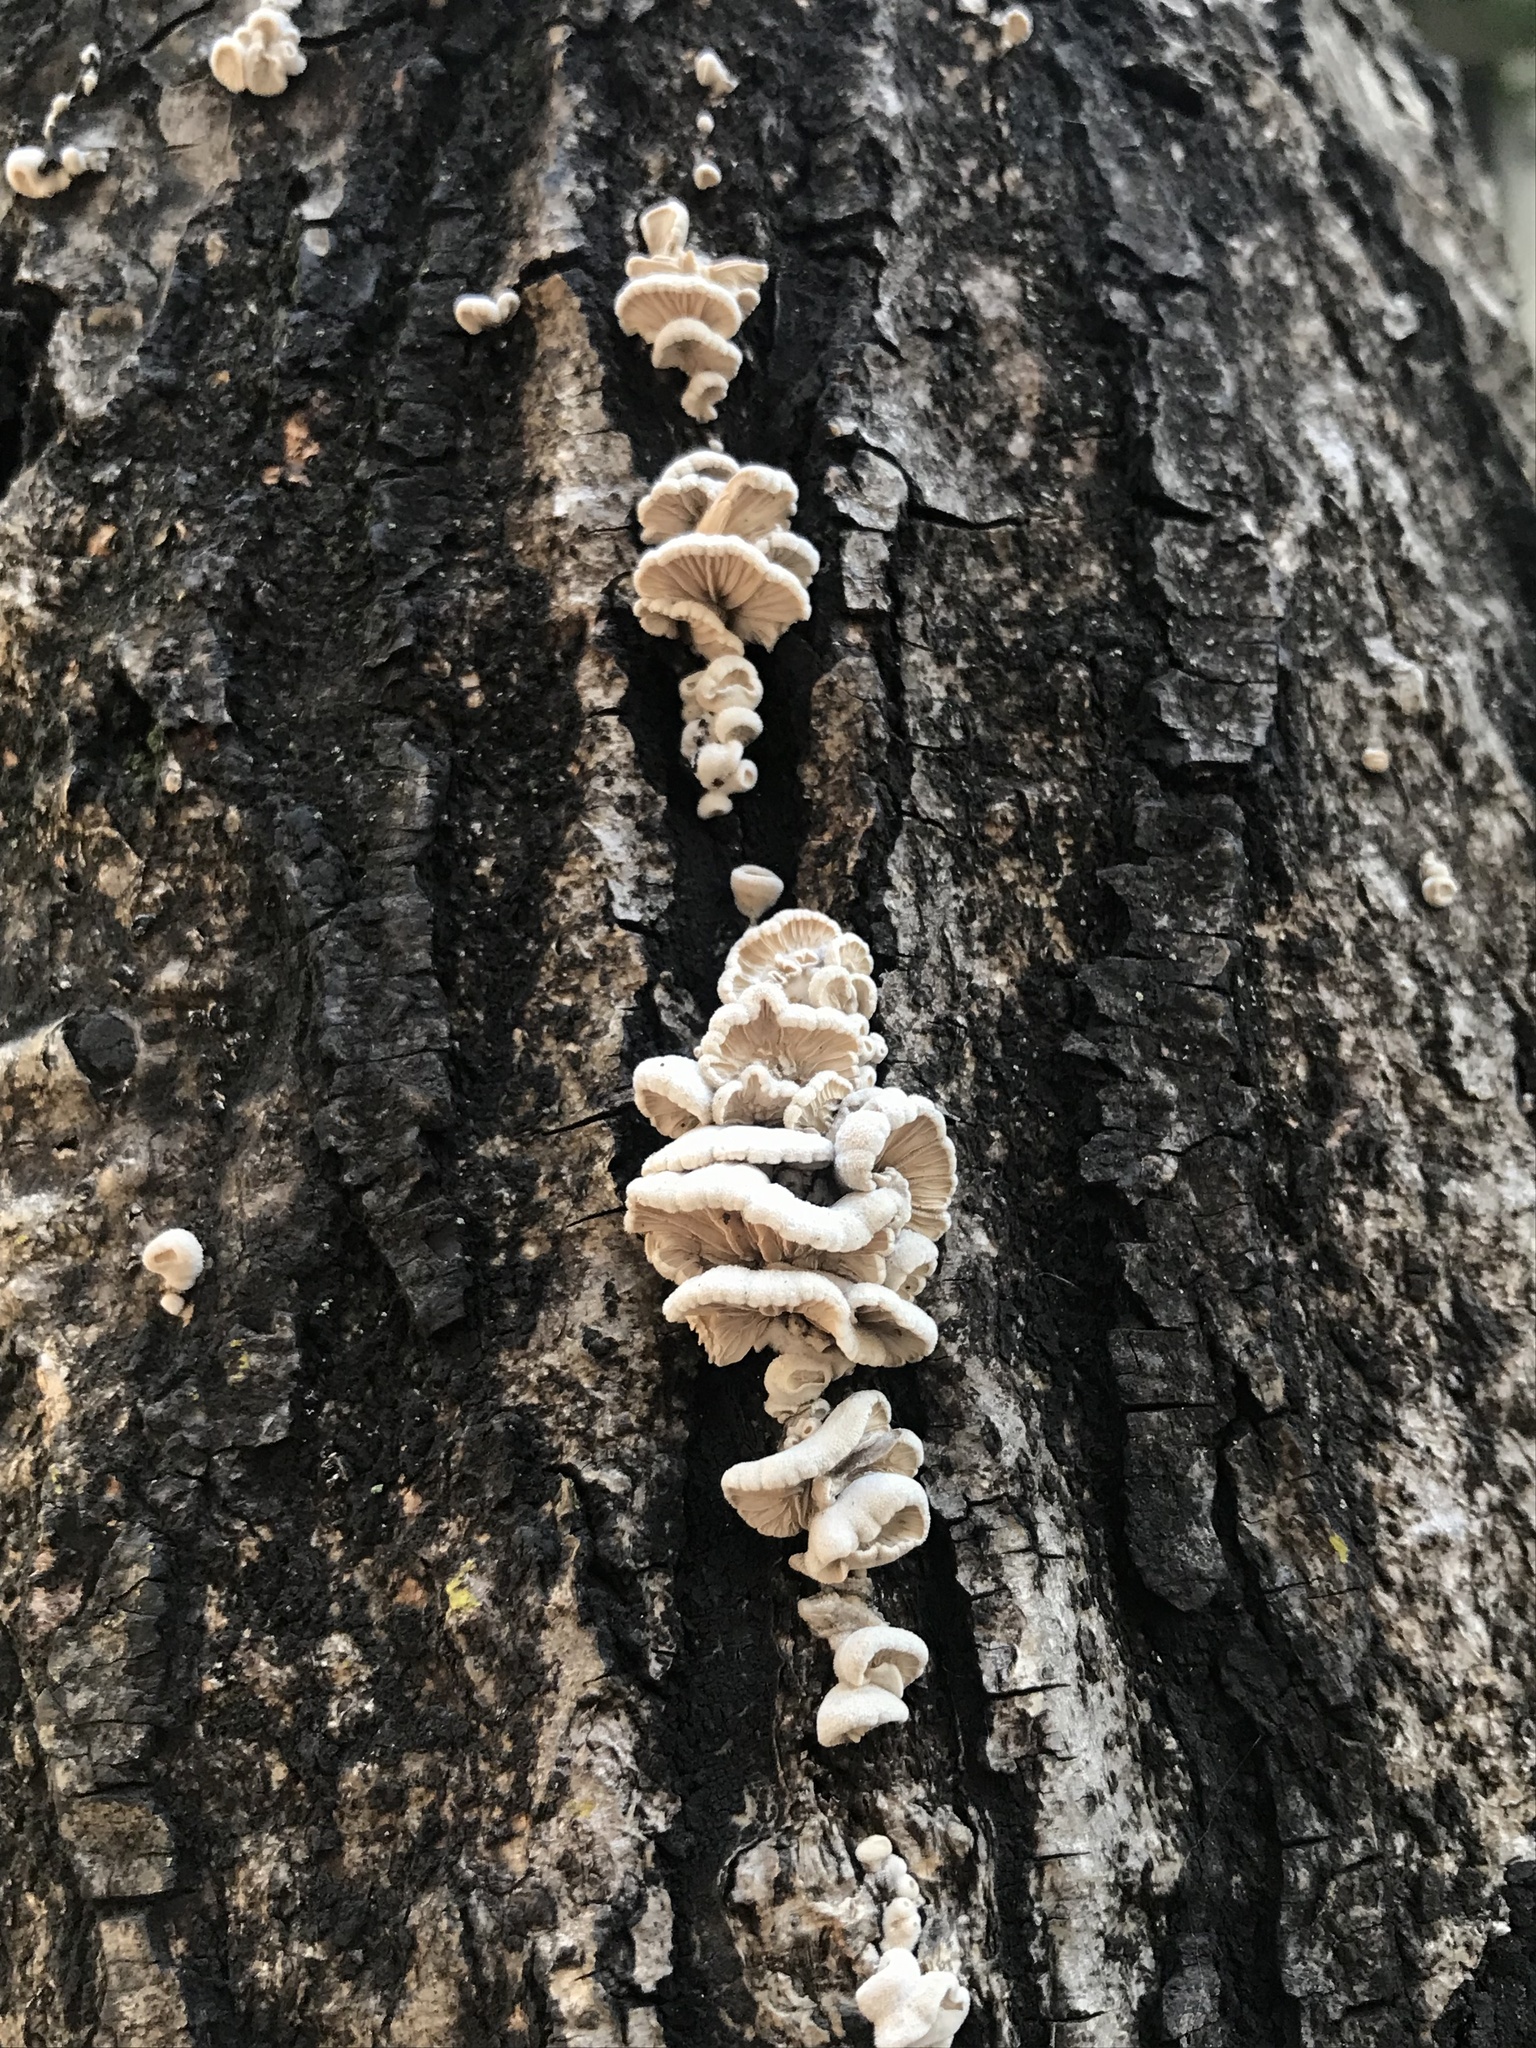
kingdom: Fungi
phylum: Basidiomycota
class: Agaricomycetes
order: Agaricales
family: Schizophyllaceae
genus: Schizophyllum
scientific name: Schizophyllum commune
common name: Common porecrust
